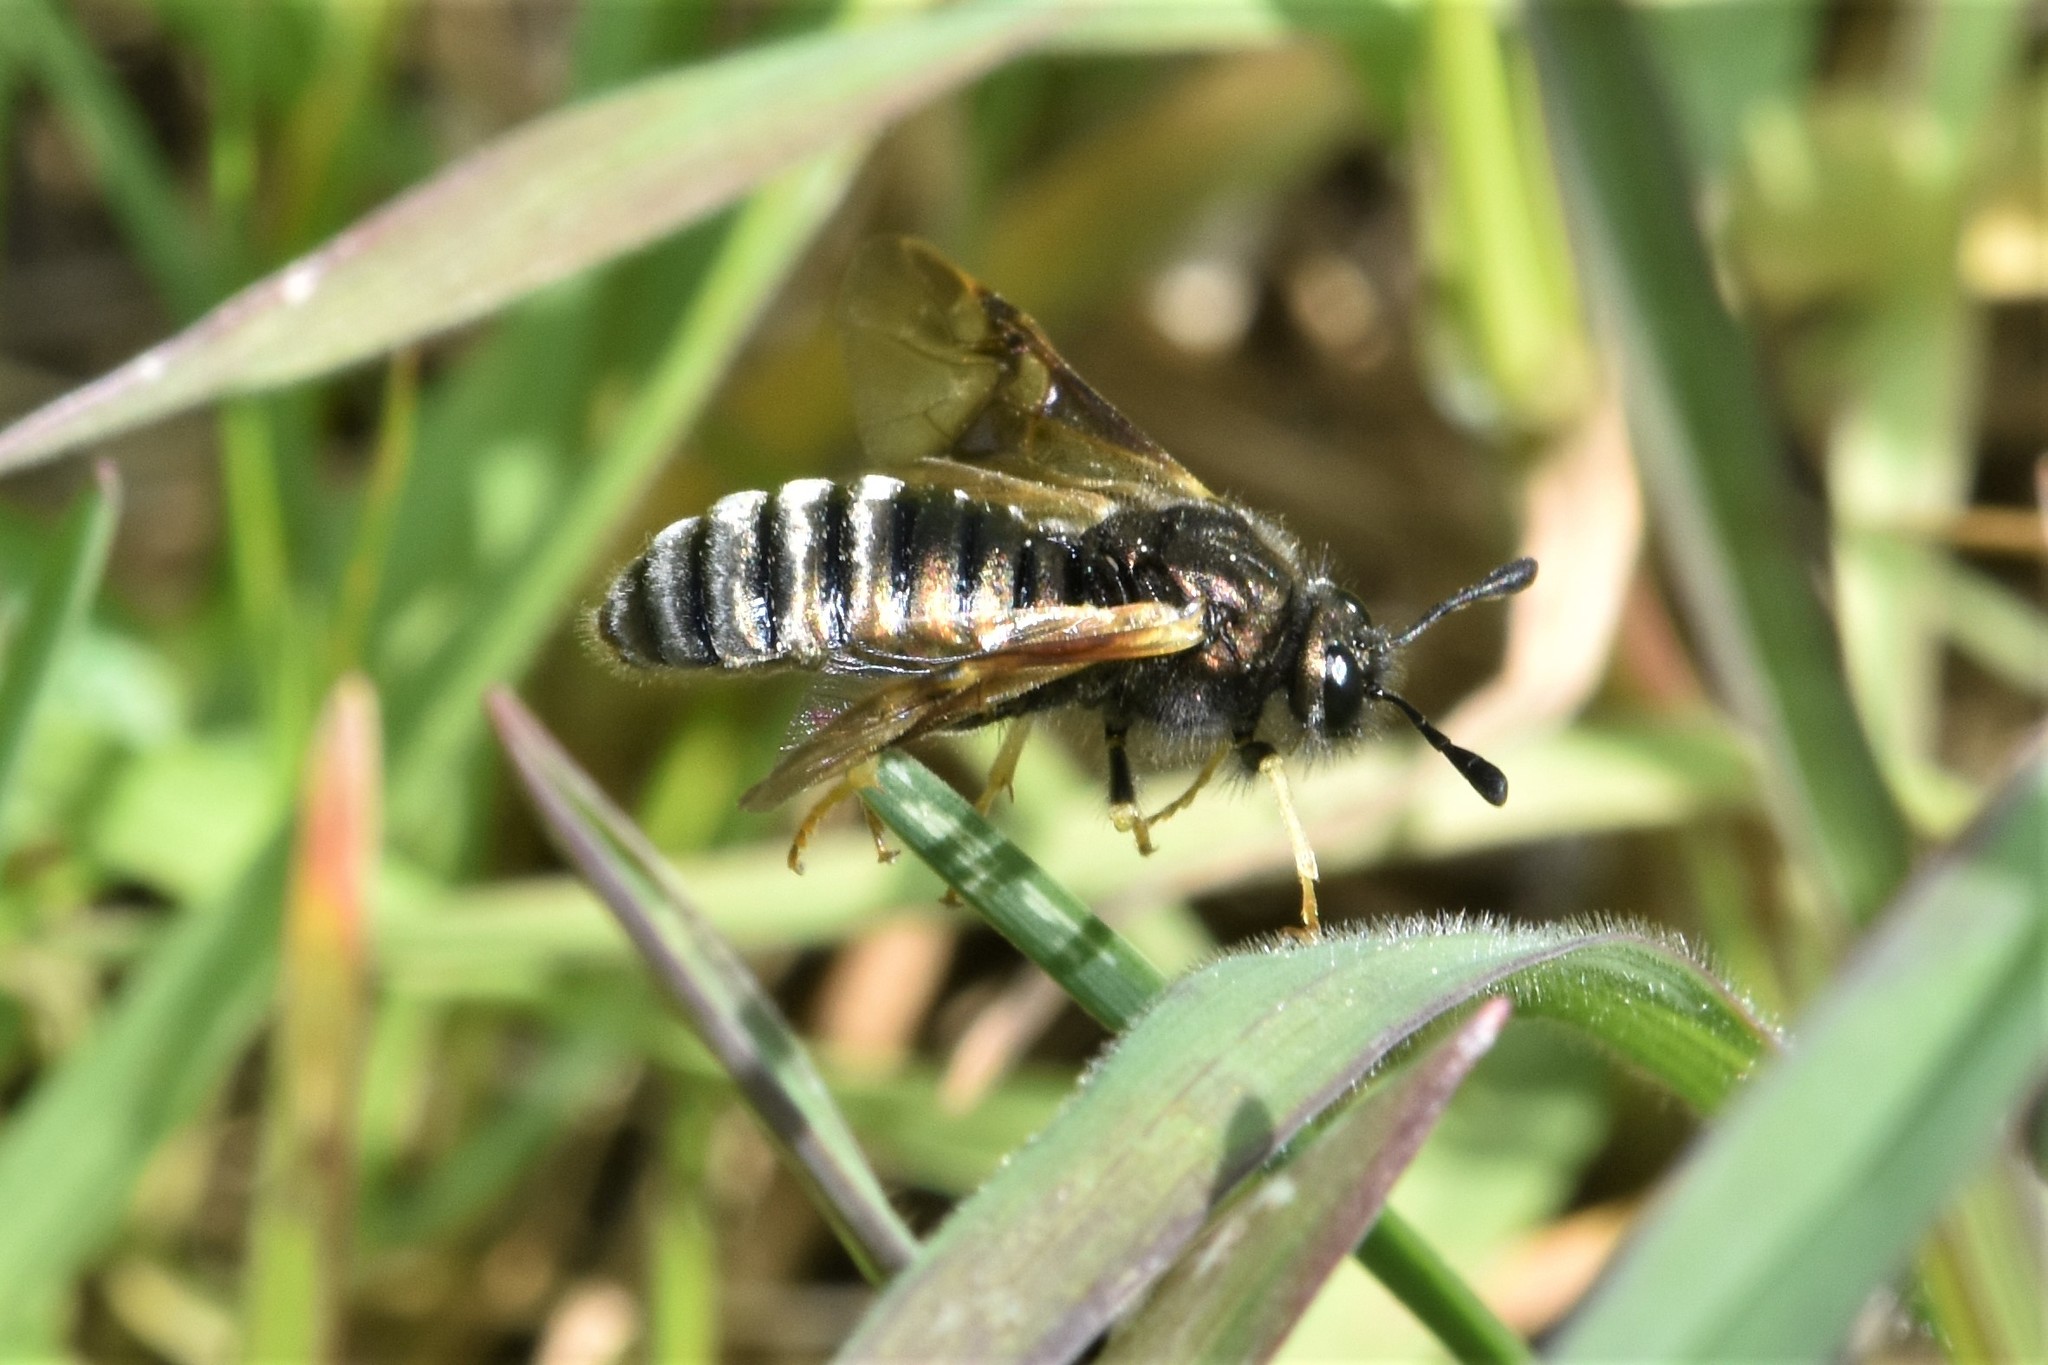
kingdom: Animalia
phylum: Arthropoda
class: Insecta
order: Hymenoptera
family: Cimbicidae
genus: Abia
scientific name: Abia americana
